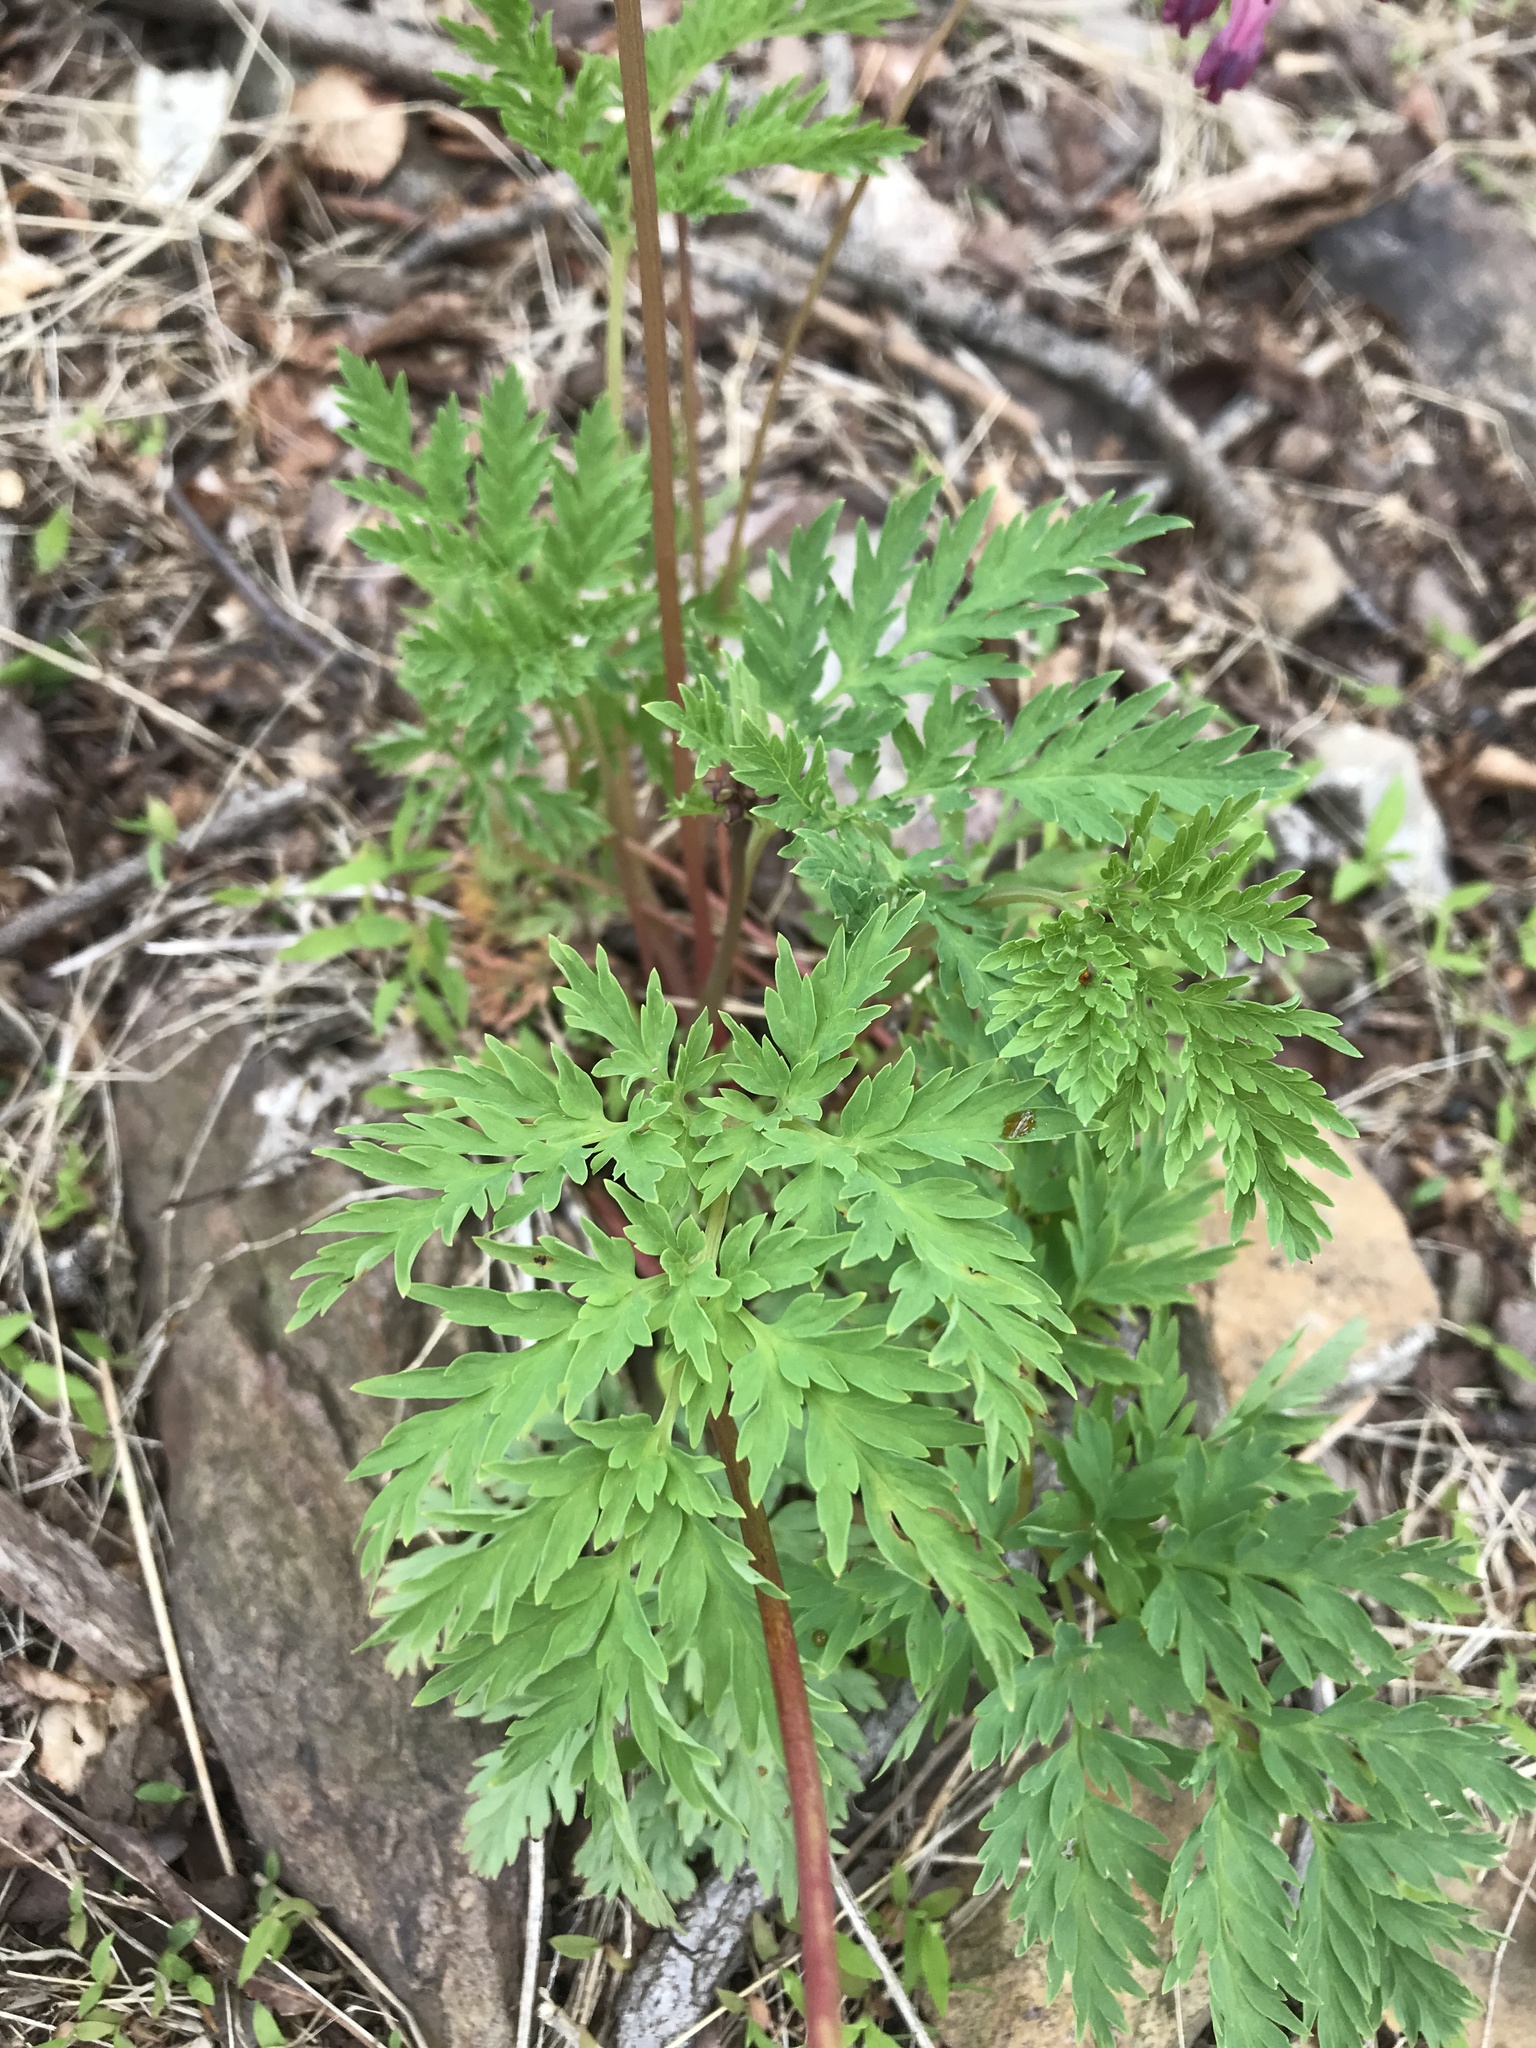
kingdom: Plantae
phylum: Tracheophyta
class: Magnoliopsida
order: Ranunculales
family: Papaveraceae
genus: Dicentra
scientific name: Dicentra eximia
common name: Turkey-corn
